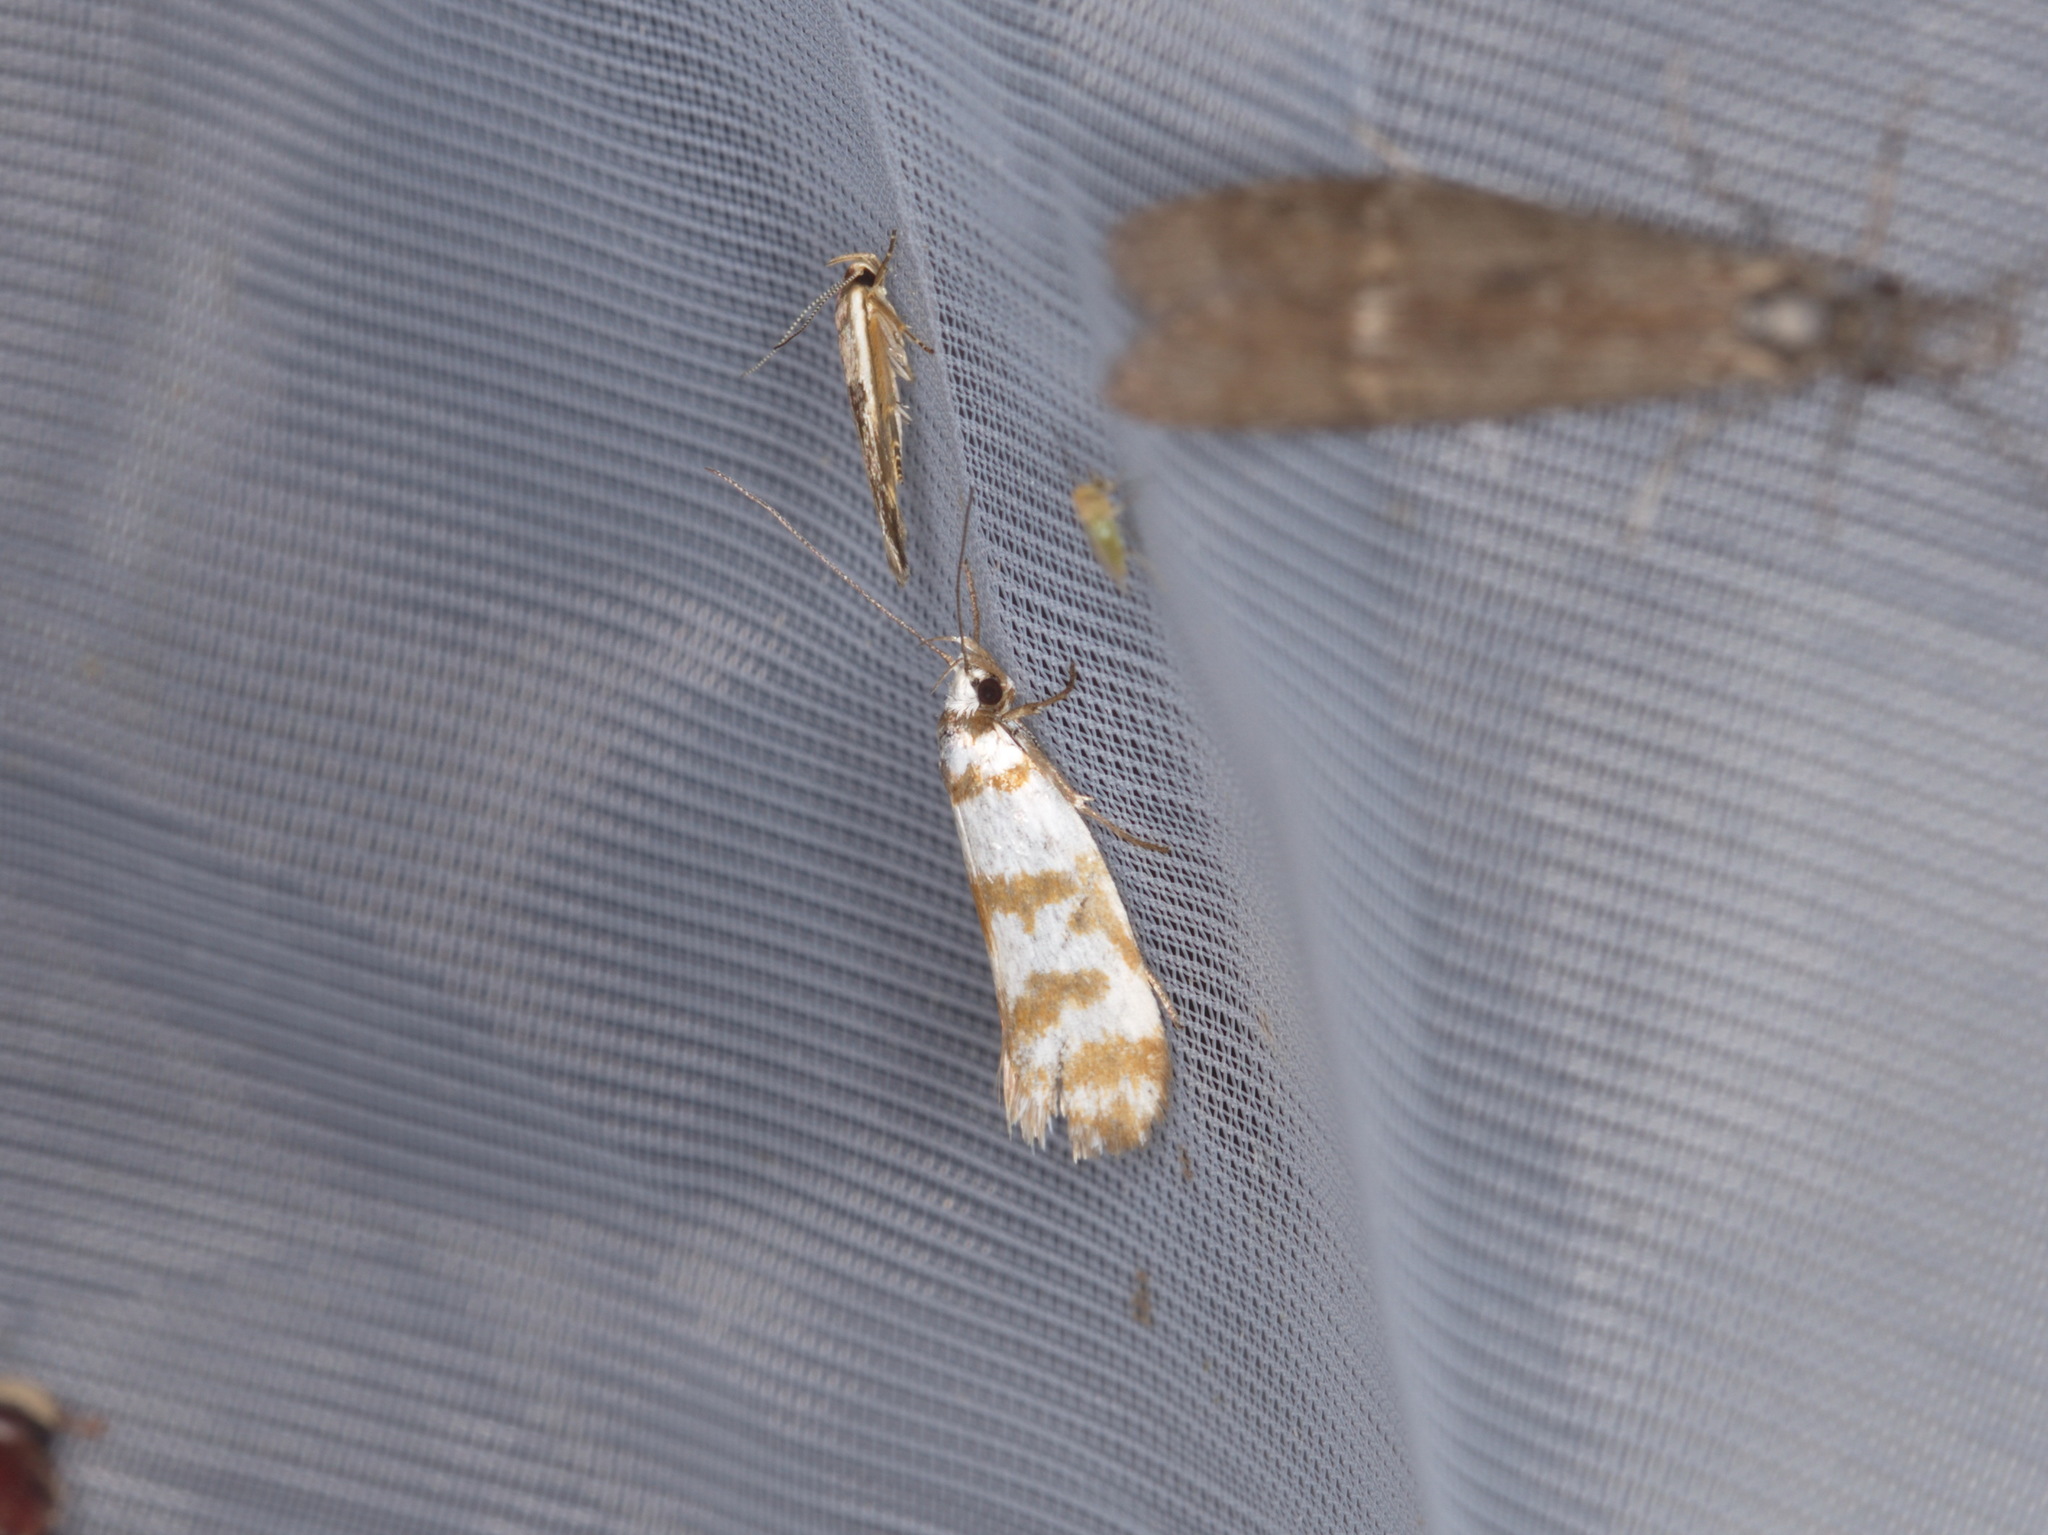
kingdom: Animalia
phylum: Arthropoda
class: Insecta
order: Lepidoptera
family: Oecophoridae
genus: Philobota
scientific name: Philobota impletella
